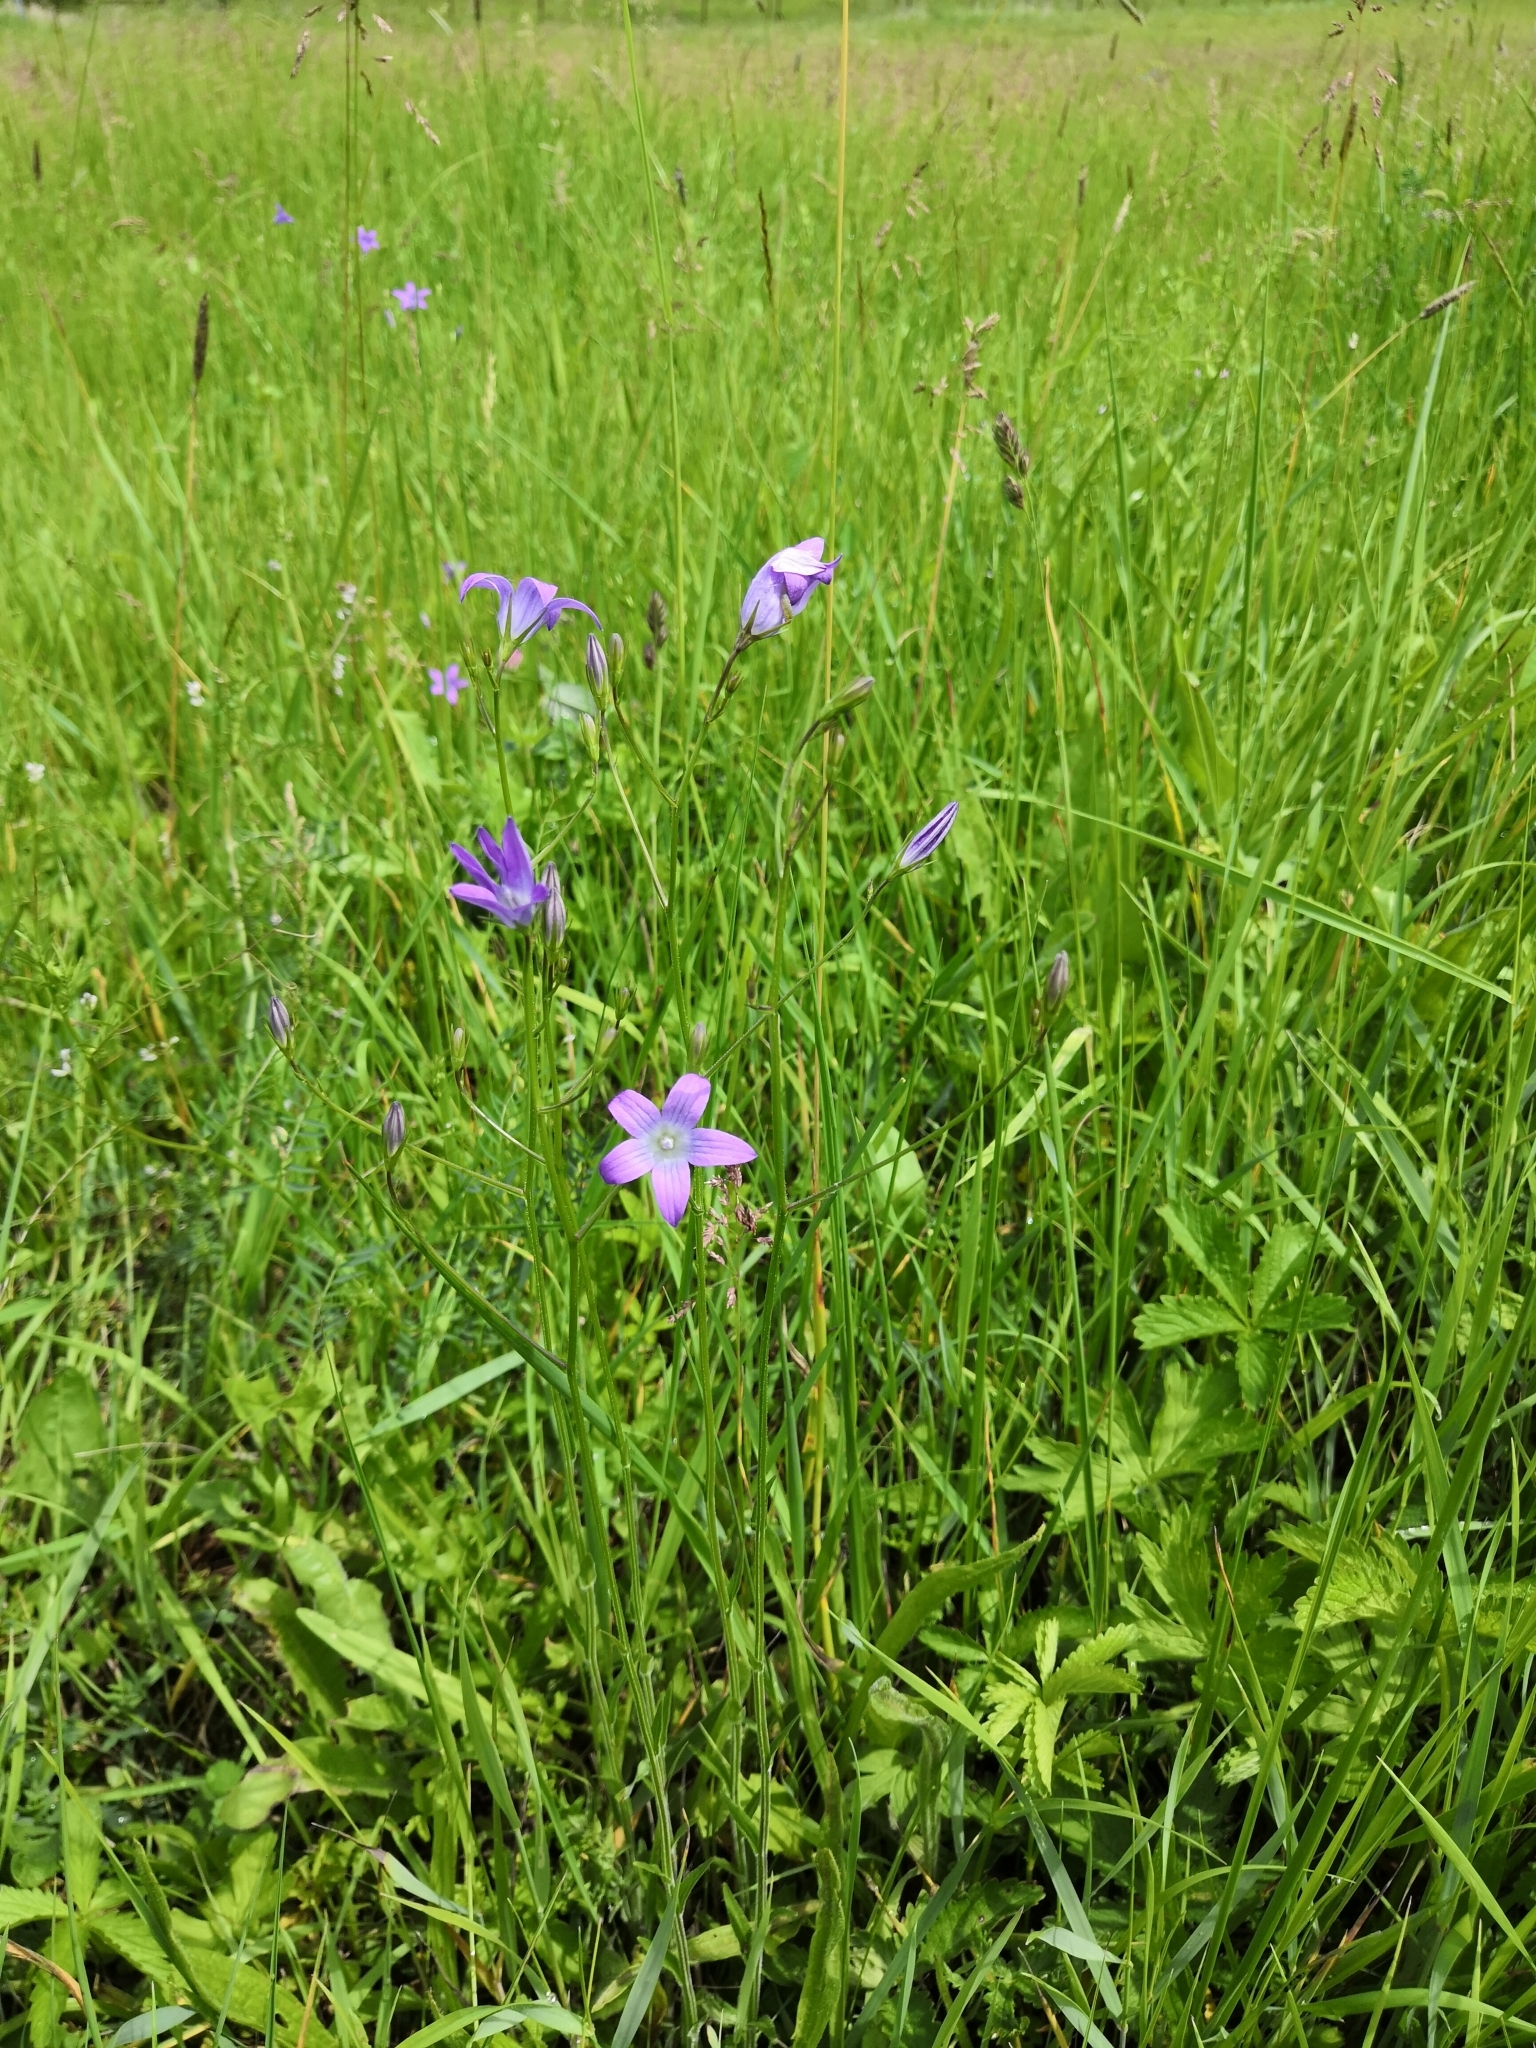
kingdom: Plantae
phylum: Tracheophyta
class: Magnoliopsida
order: Asterales
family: Campanulaceae
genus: Campanula
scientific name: Campanula patula
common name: Spreading bellflower
